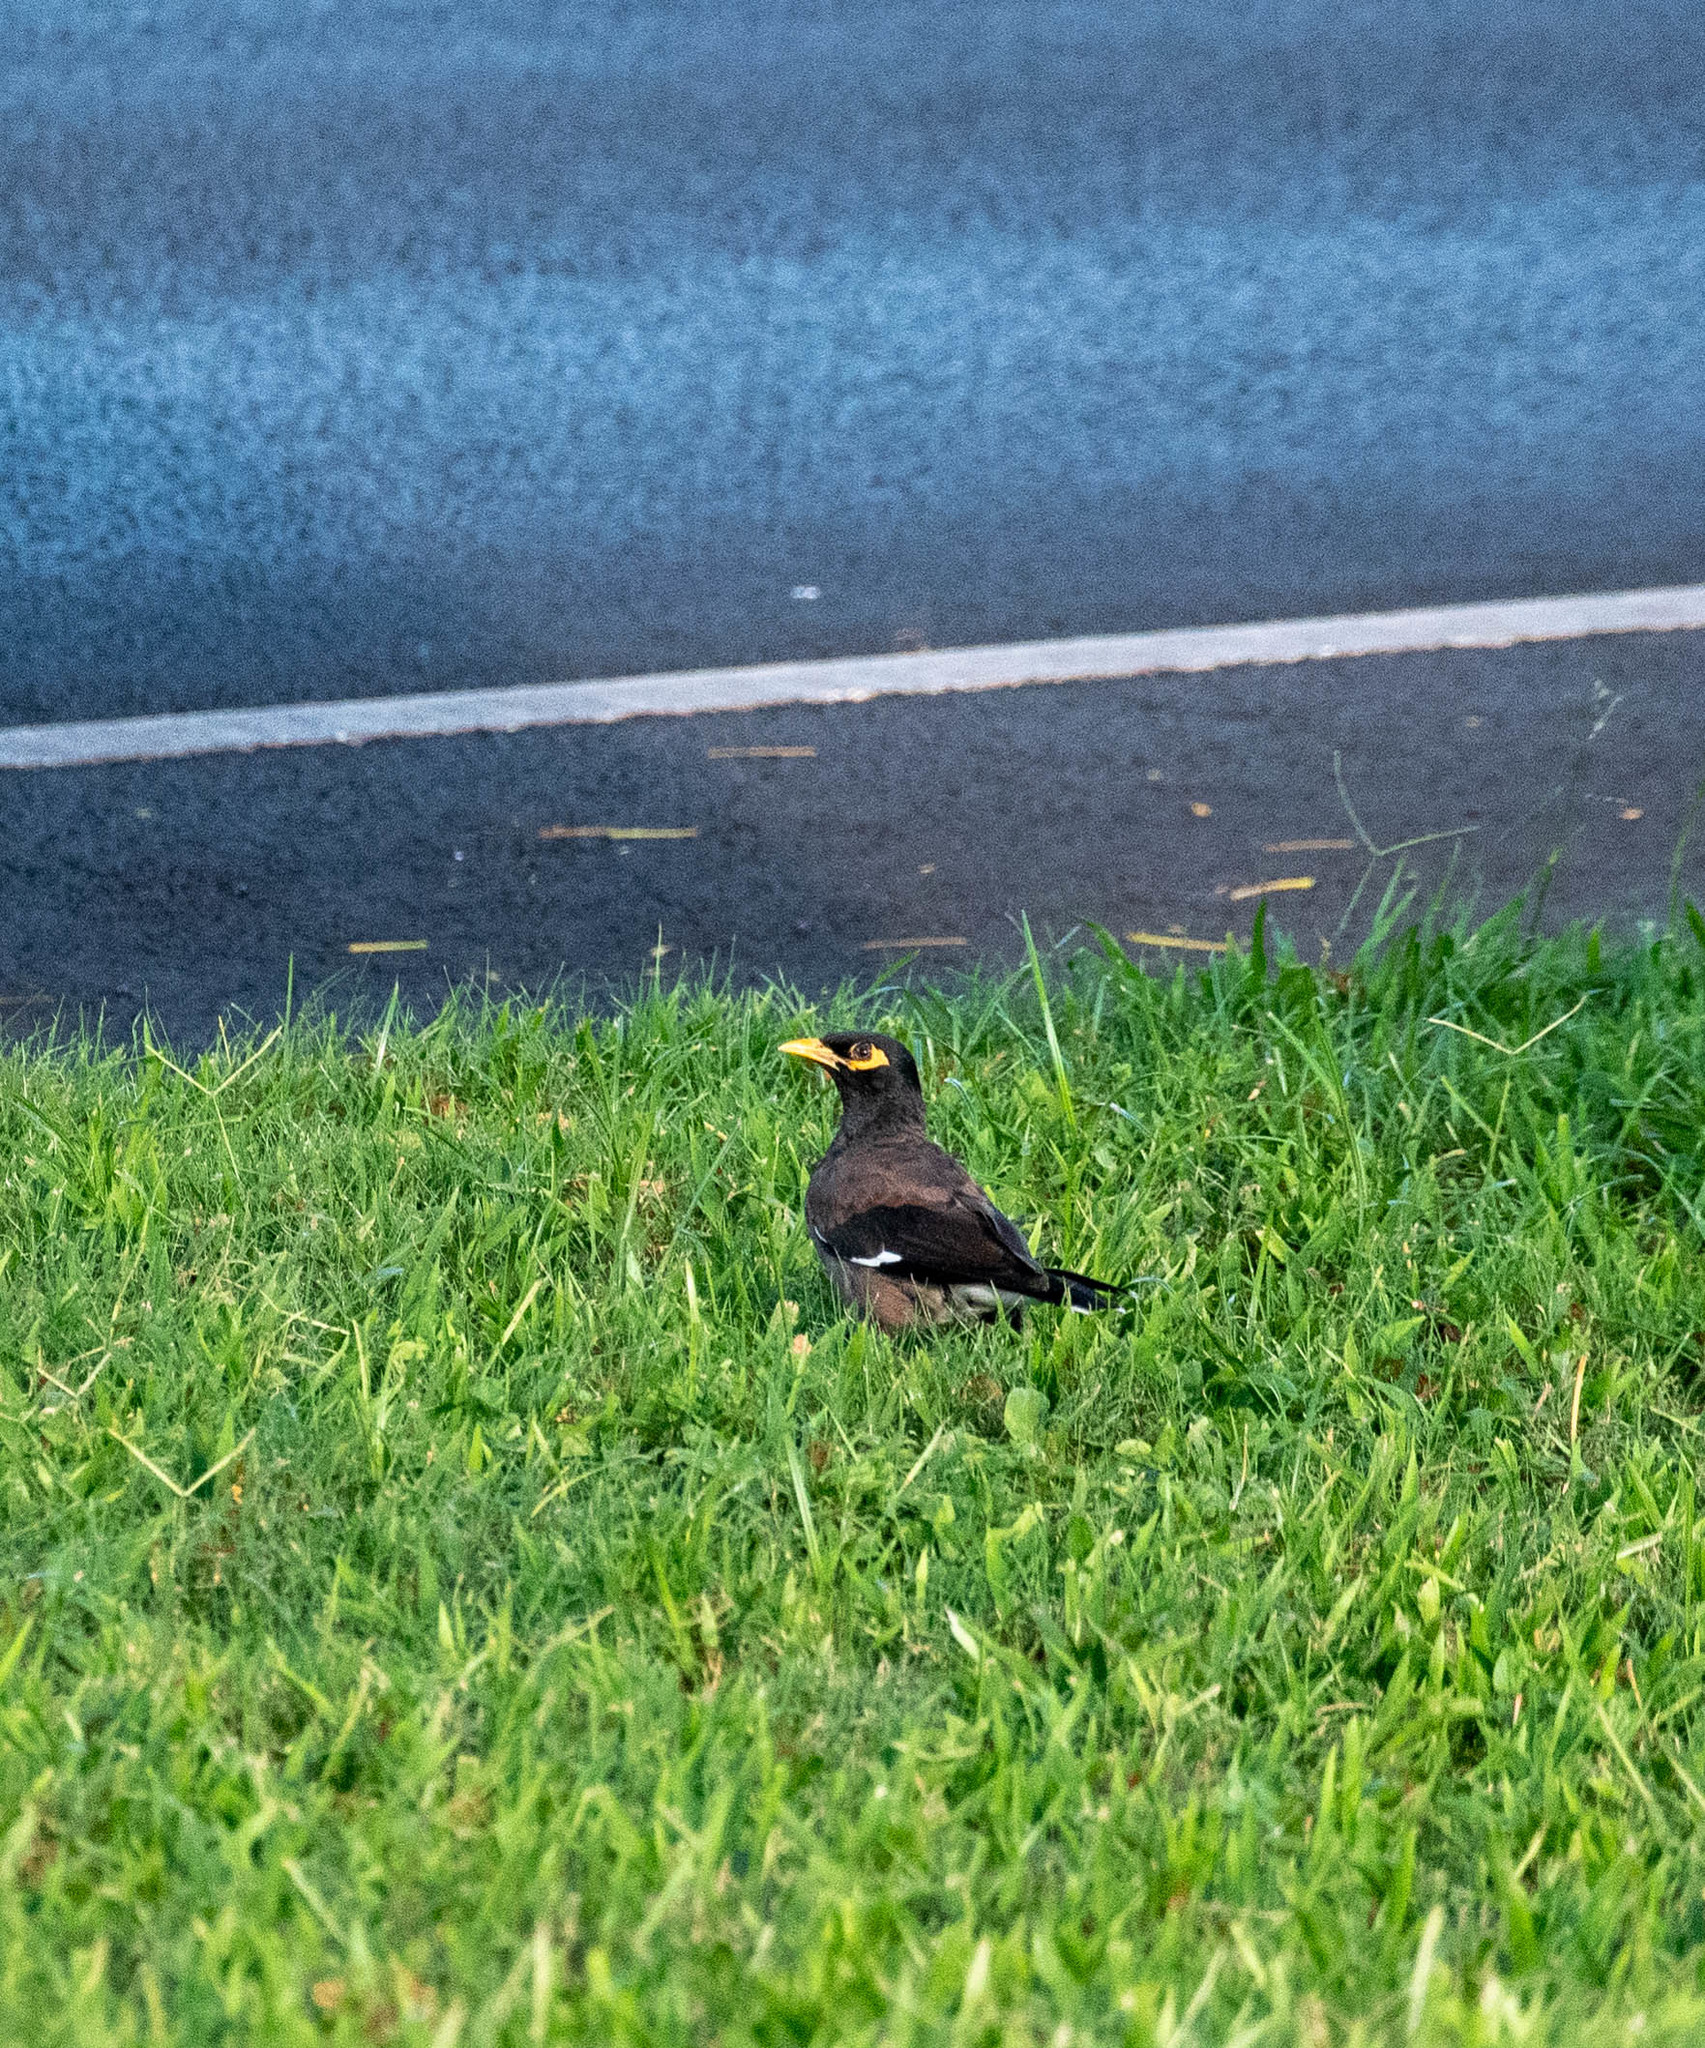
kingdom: Animalia
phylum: Chordata
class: Aves
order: Passeriformes
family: Sturnidae
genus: Acridotheres
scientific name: Acridotheres tristis
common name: Common myna
